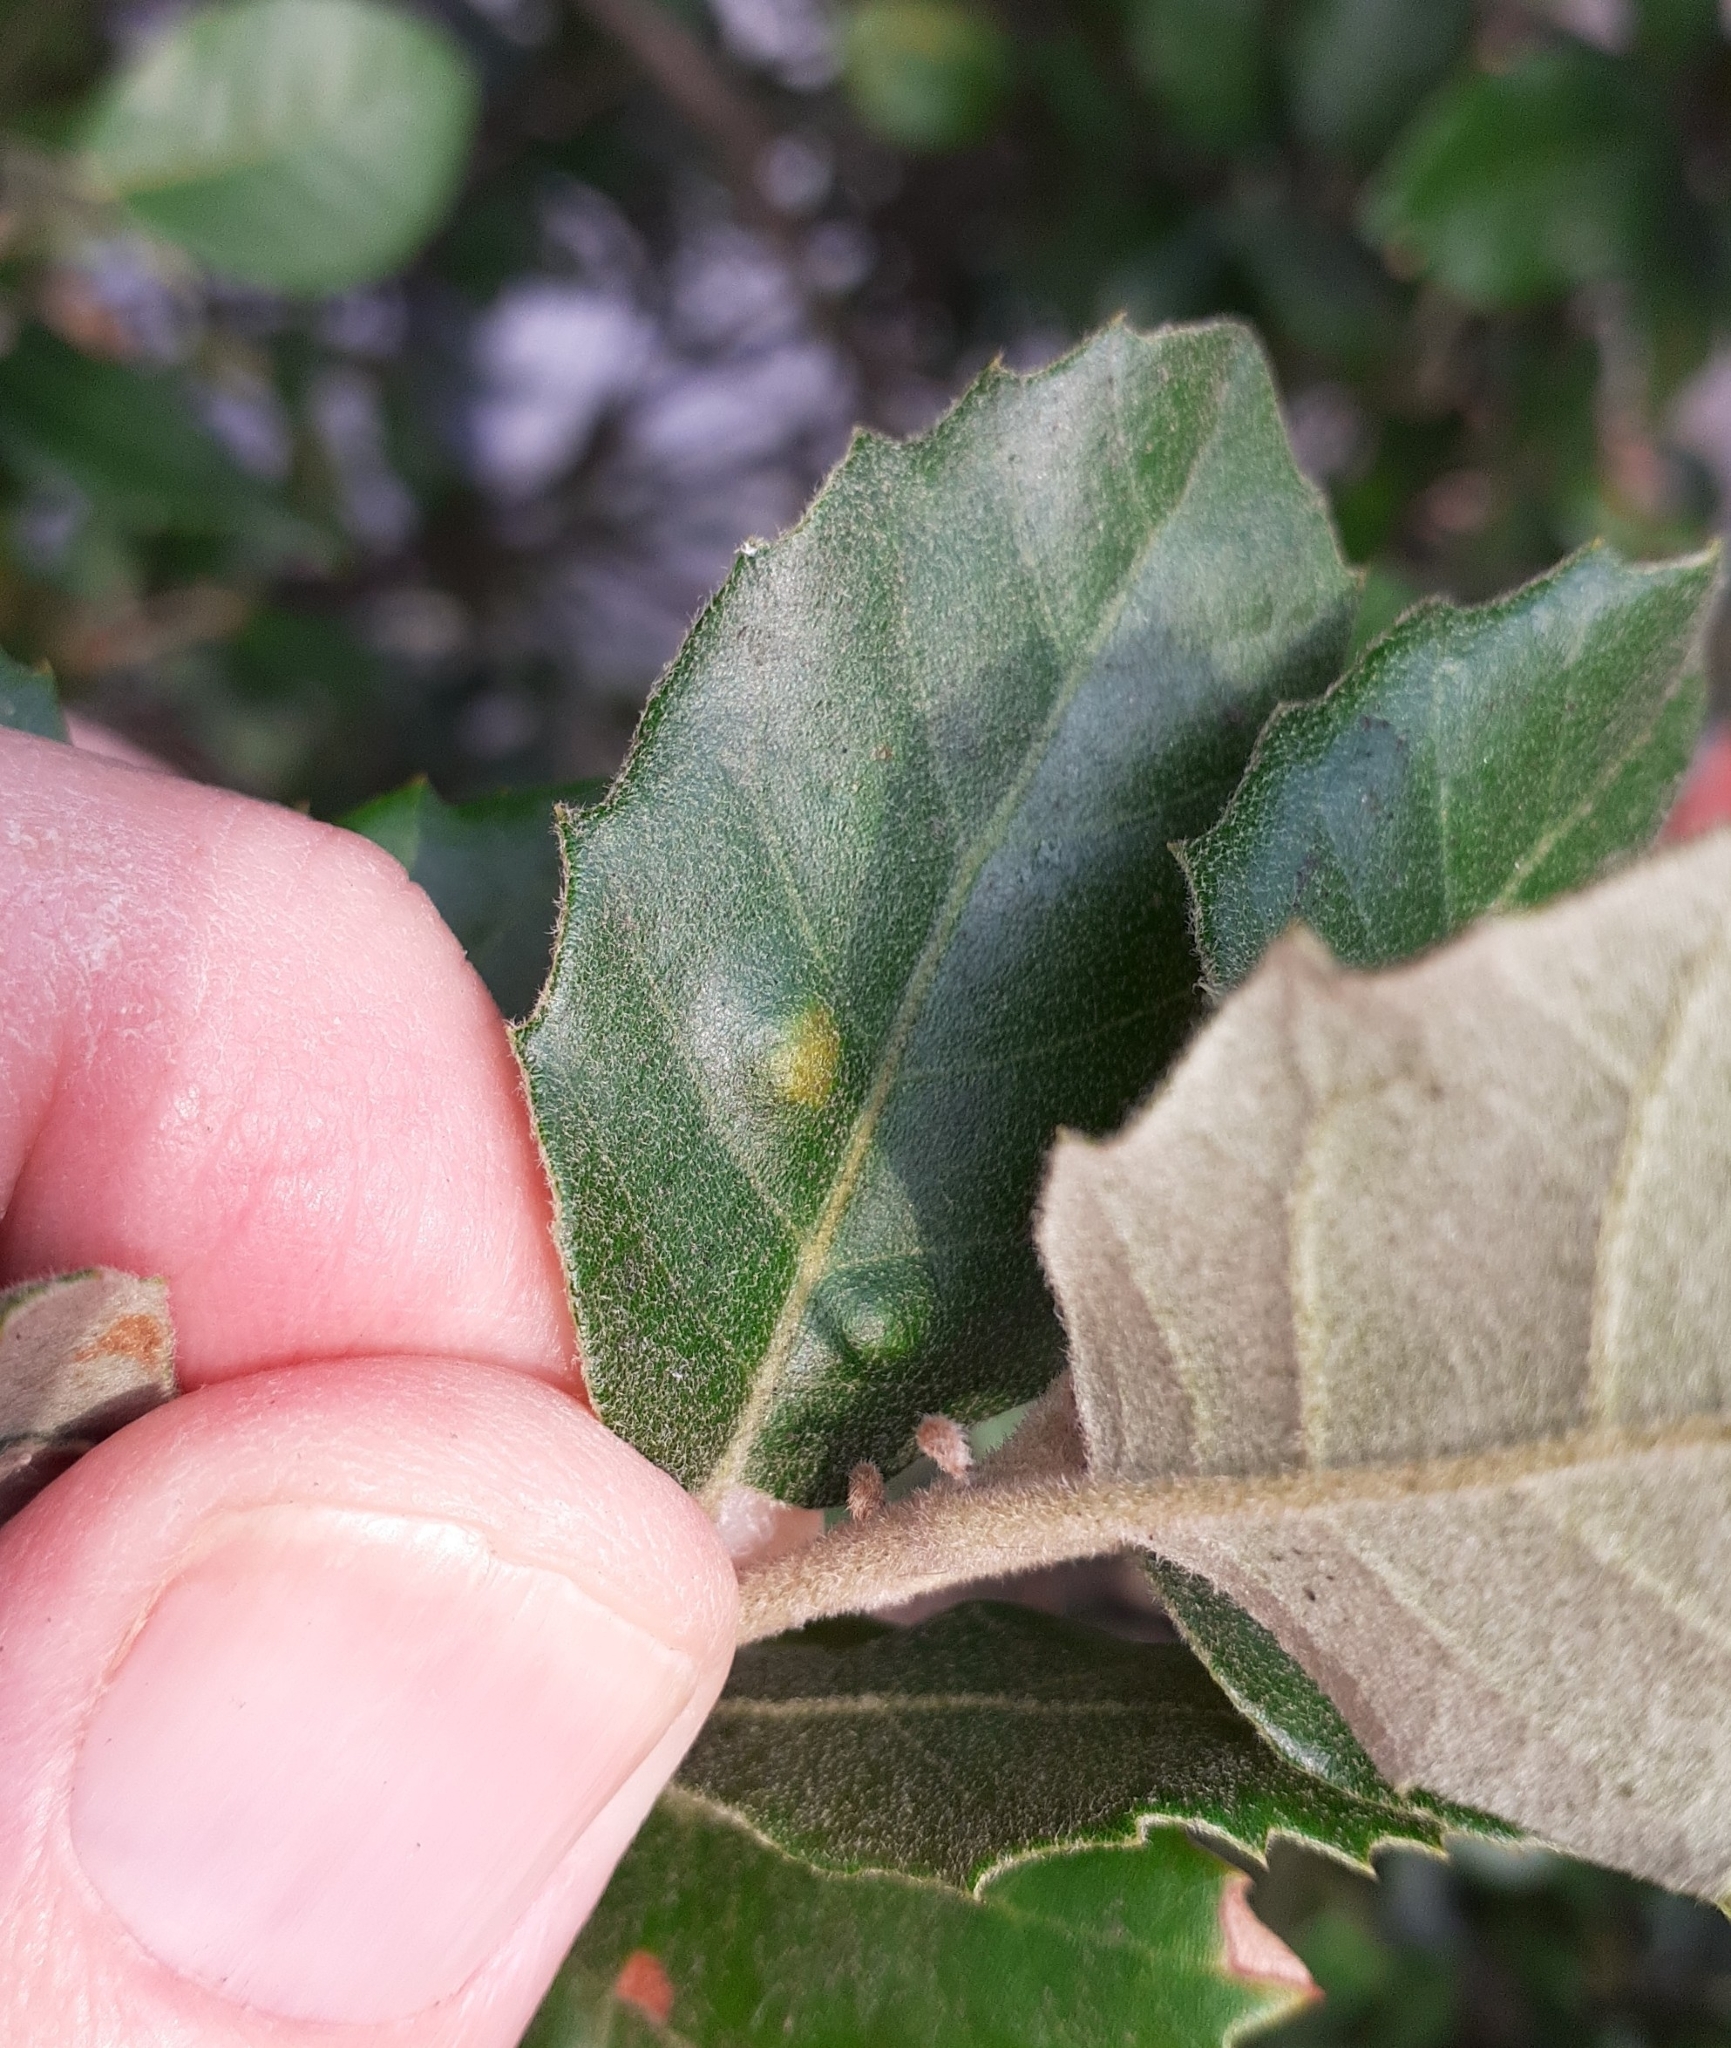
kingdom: Animalia
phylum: Arthropoda
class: Arachnida
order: Trombidiformes
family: Eriophyidae
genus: Aceria
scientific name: Aceria ilicis
